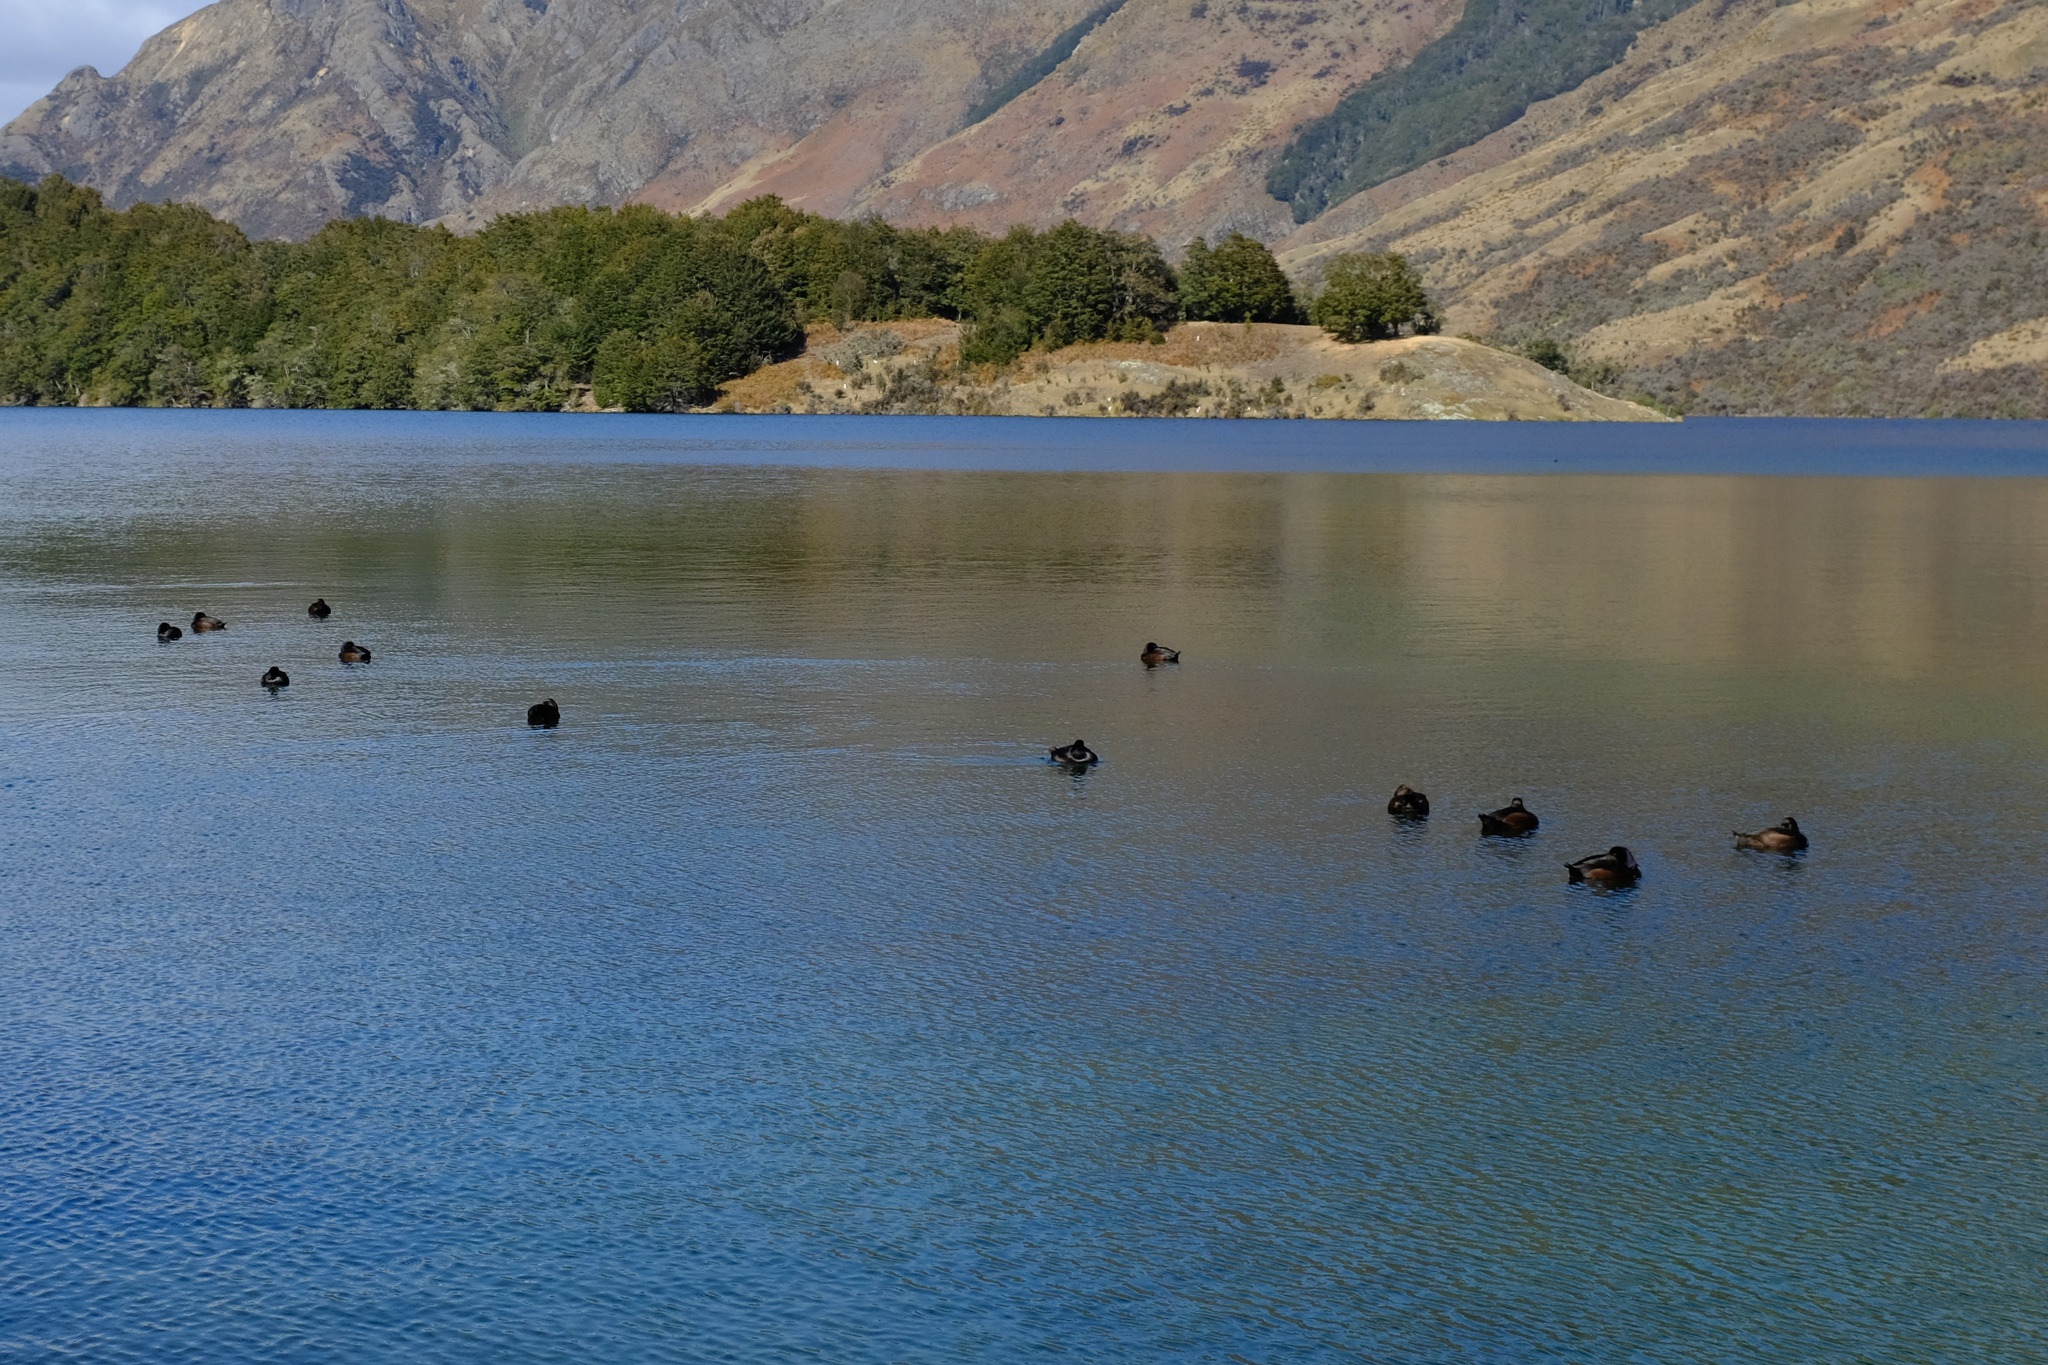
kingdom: Animalia
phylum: Chordata
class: Aves
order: Anseriformes
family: Anatidae
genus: Aythya
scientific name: Aythya novaeseelandiae
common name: New zealand scaup
